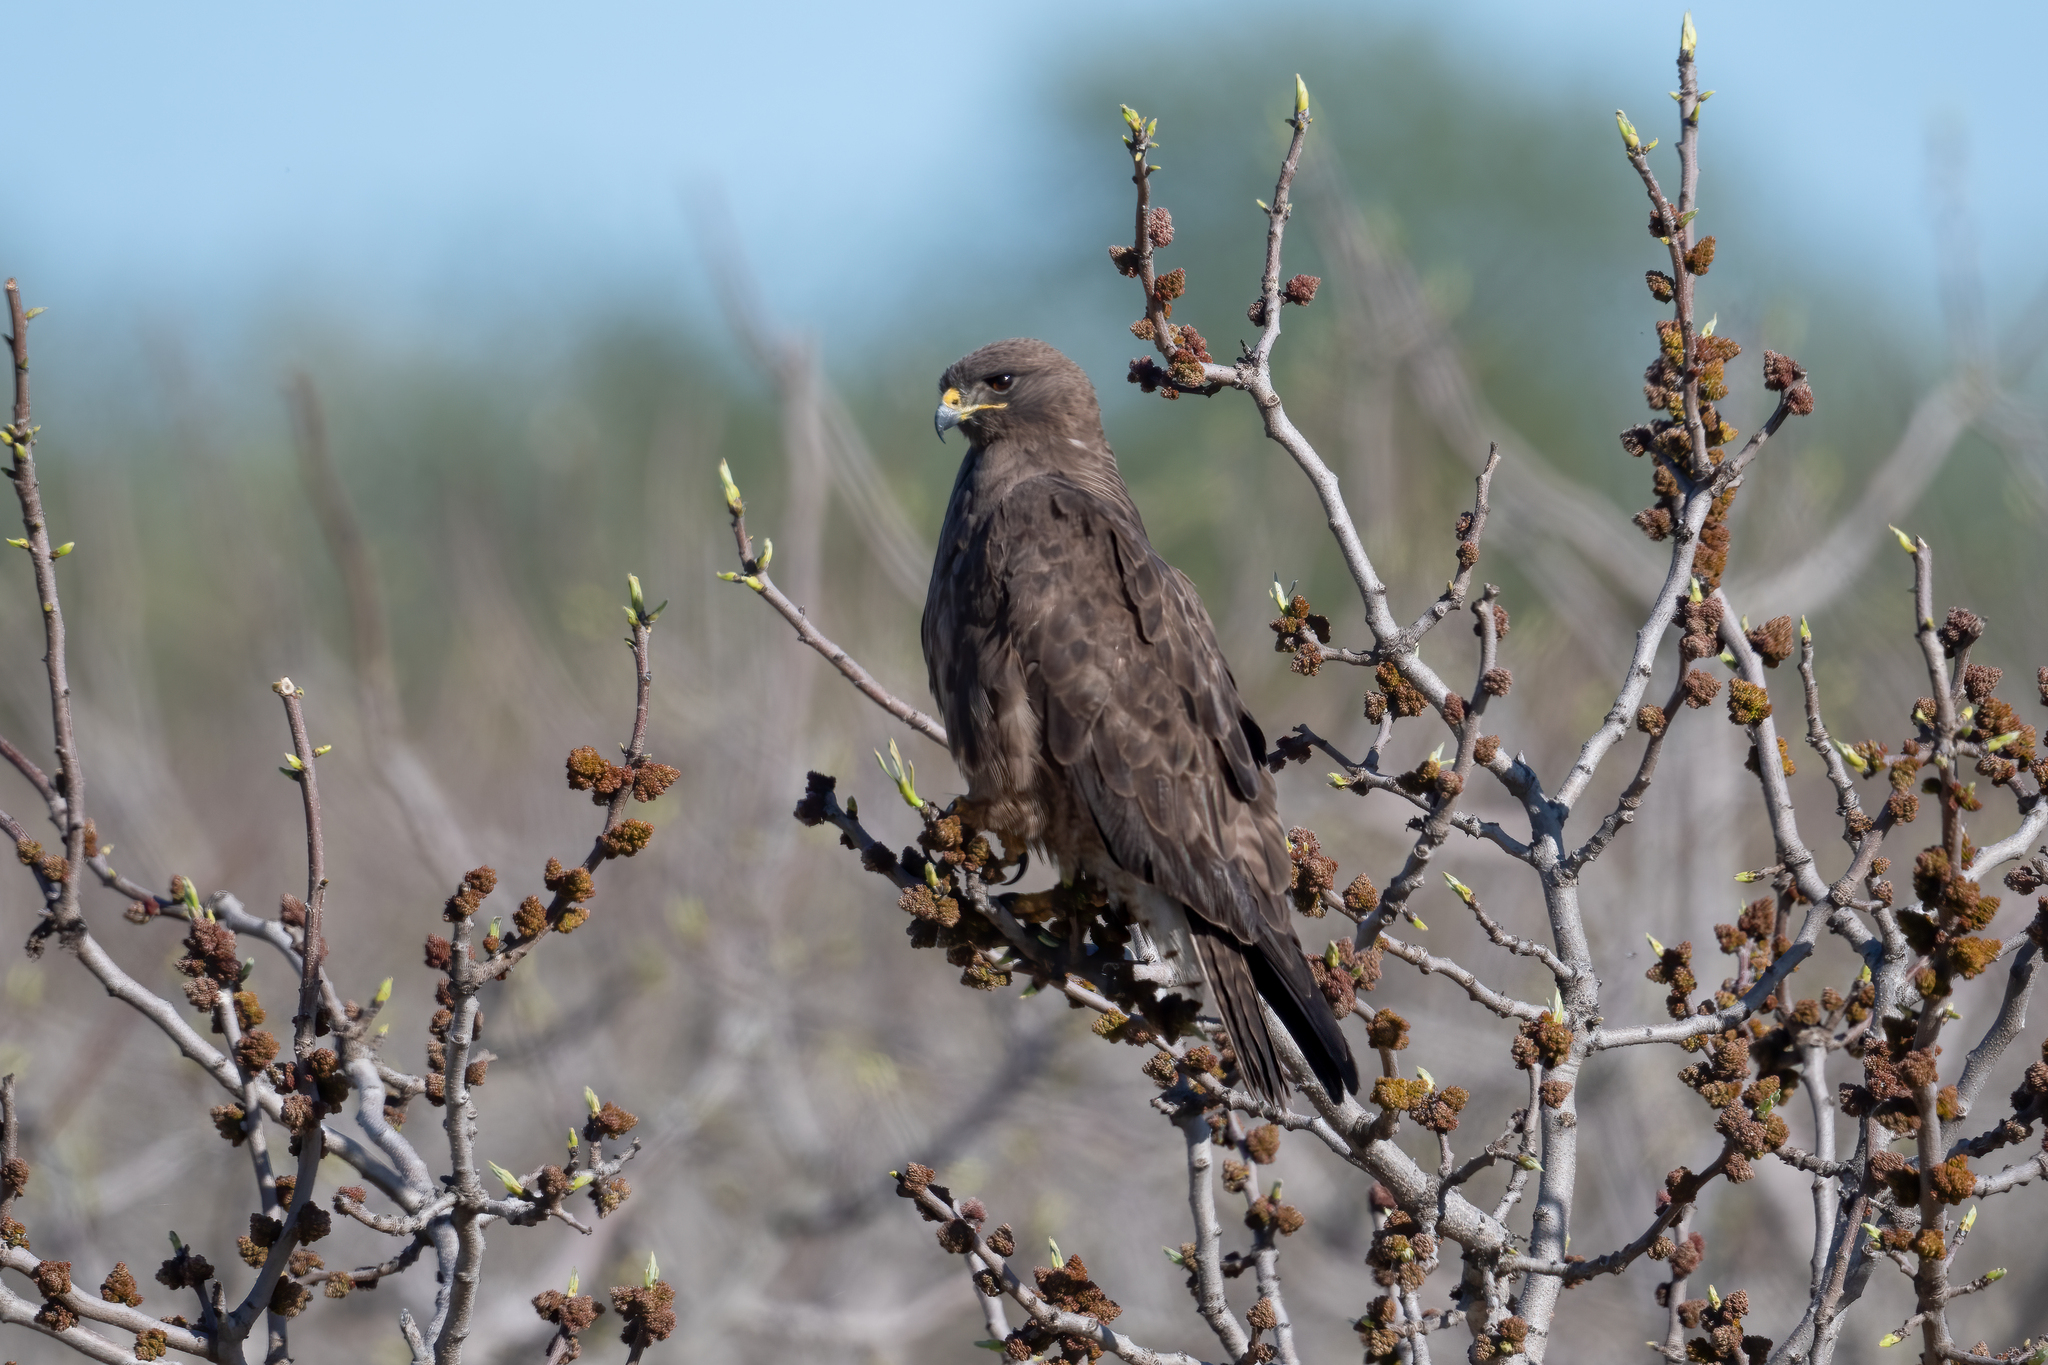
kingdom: Animalia
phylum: Chordata
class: Aves
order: Accipitriformes
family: Accipitridae
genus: Buteo
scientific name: Buteo swainsoni
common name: Swainson's hawk
